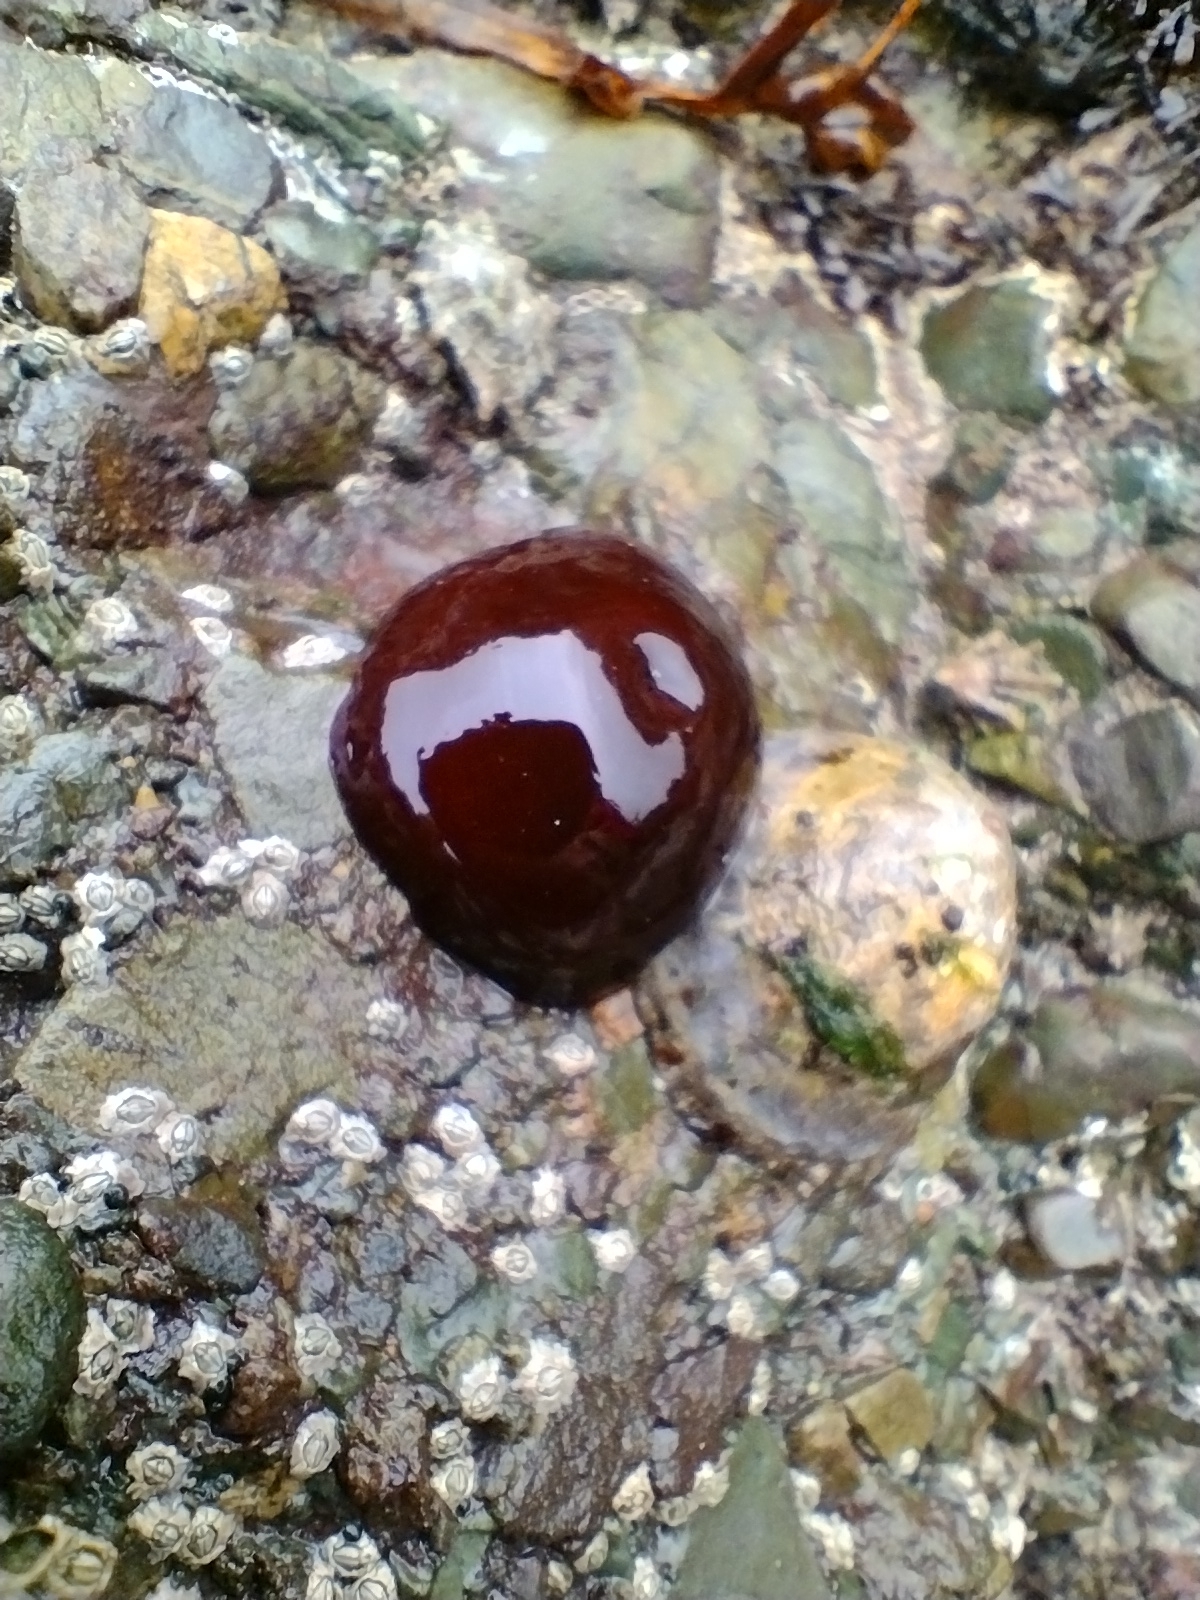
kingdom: Animalia
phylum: Cnidaria
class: Anthozoa
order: Actiniaria
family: Actiniidae
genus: Actinia
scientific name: Actinia equina
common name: Beadlet anemone
